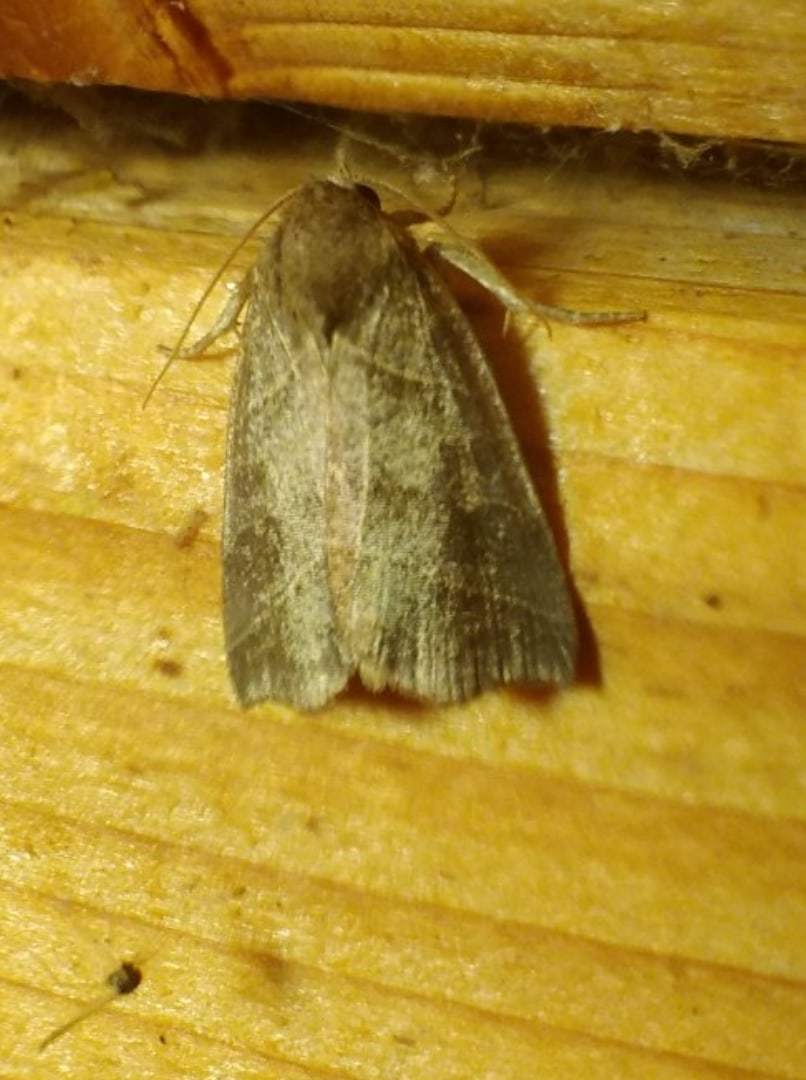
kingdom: Animalia
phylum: Arthropoda
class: Insecta
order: Lepidoptera
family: Noctuidae
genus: Ipimorpha
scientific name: Ipimorpha retusa
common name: Double kidney
